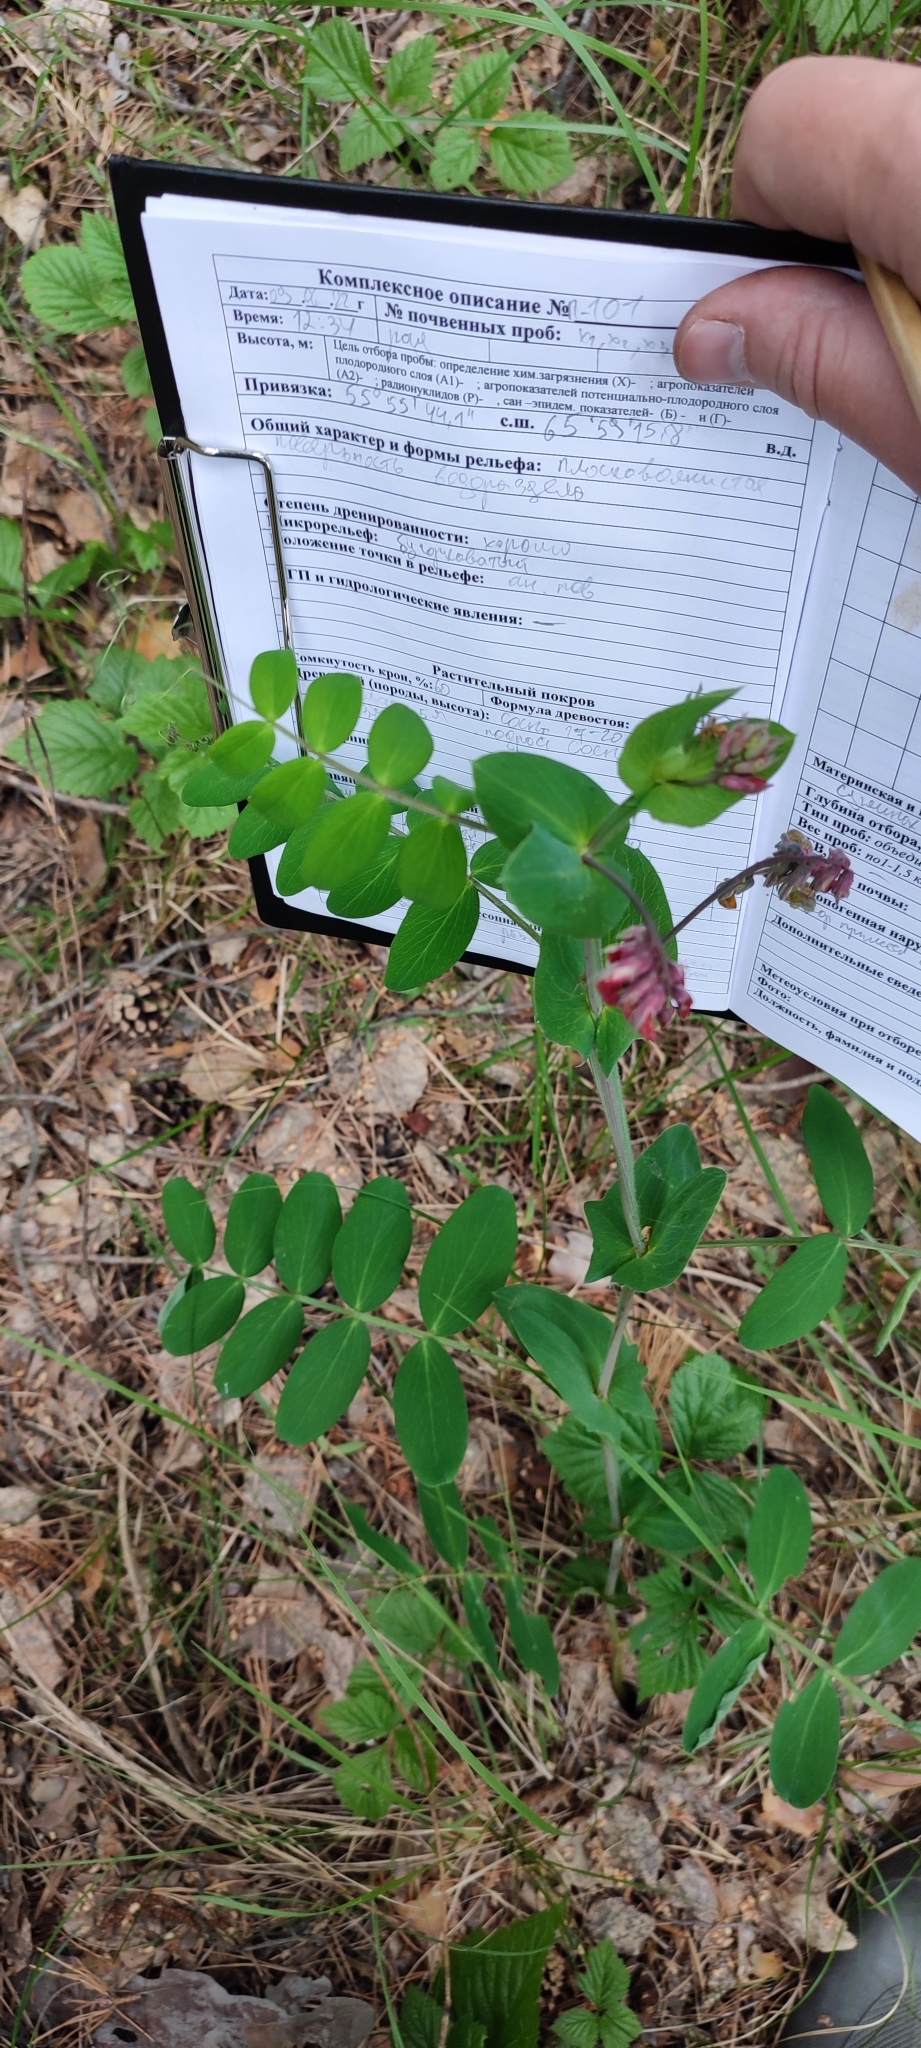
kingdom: Plantae
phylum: Tracheophyta
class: Magnoliopsida
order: Fabales
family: Fabaceae
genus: Lathyrus
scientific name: Lathyrus pisiformis
